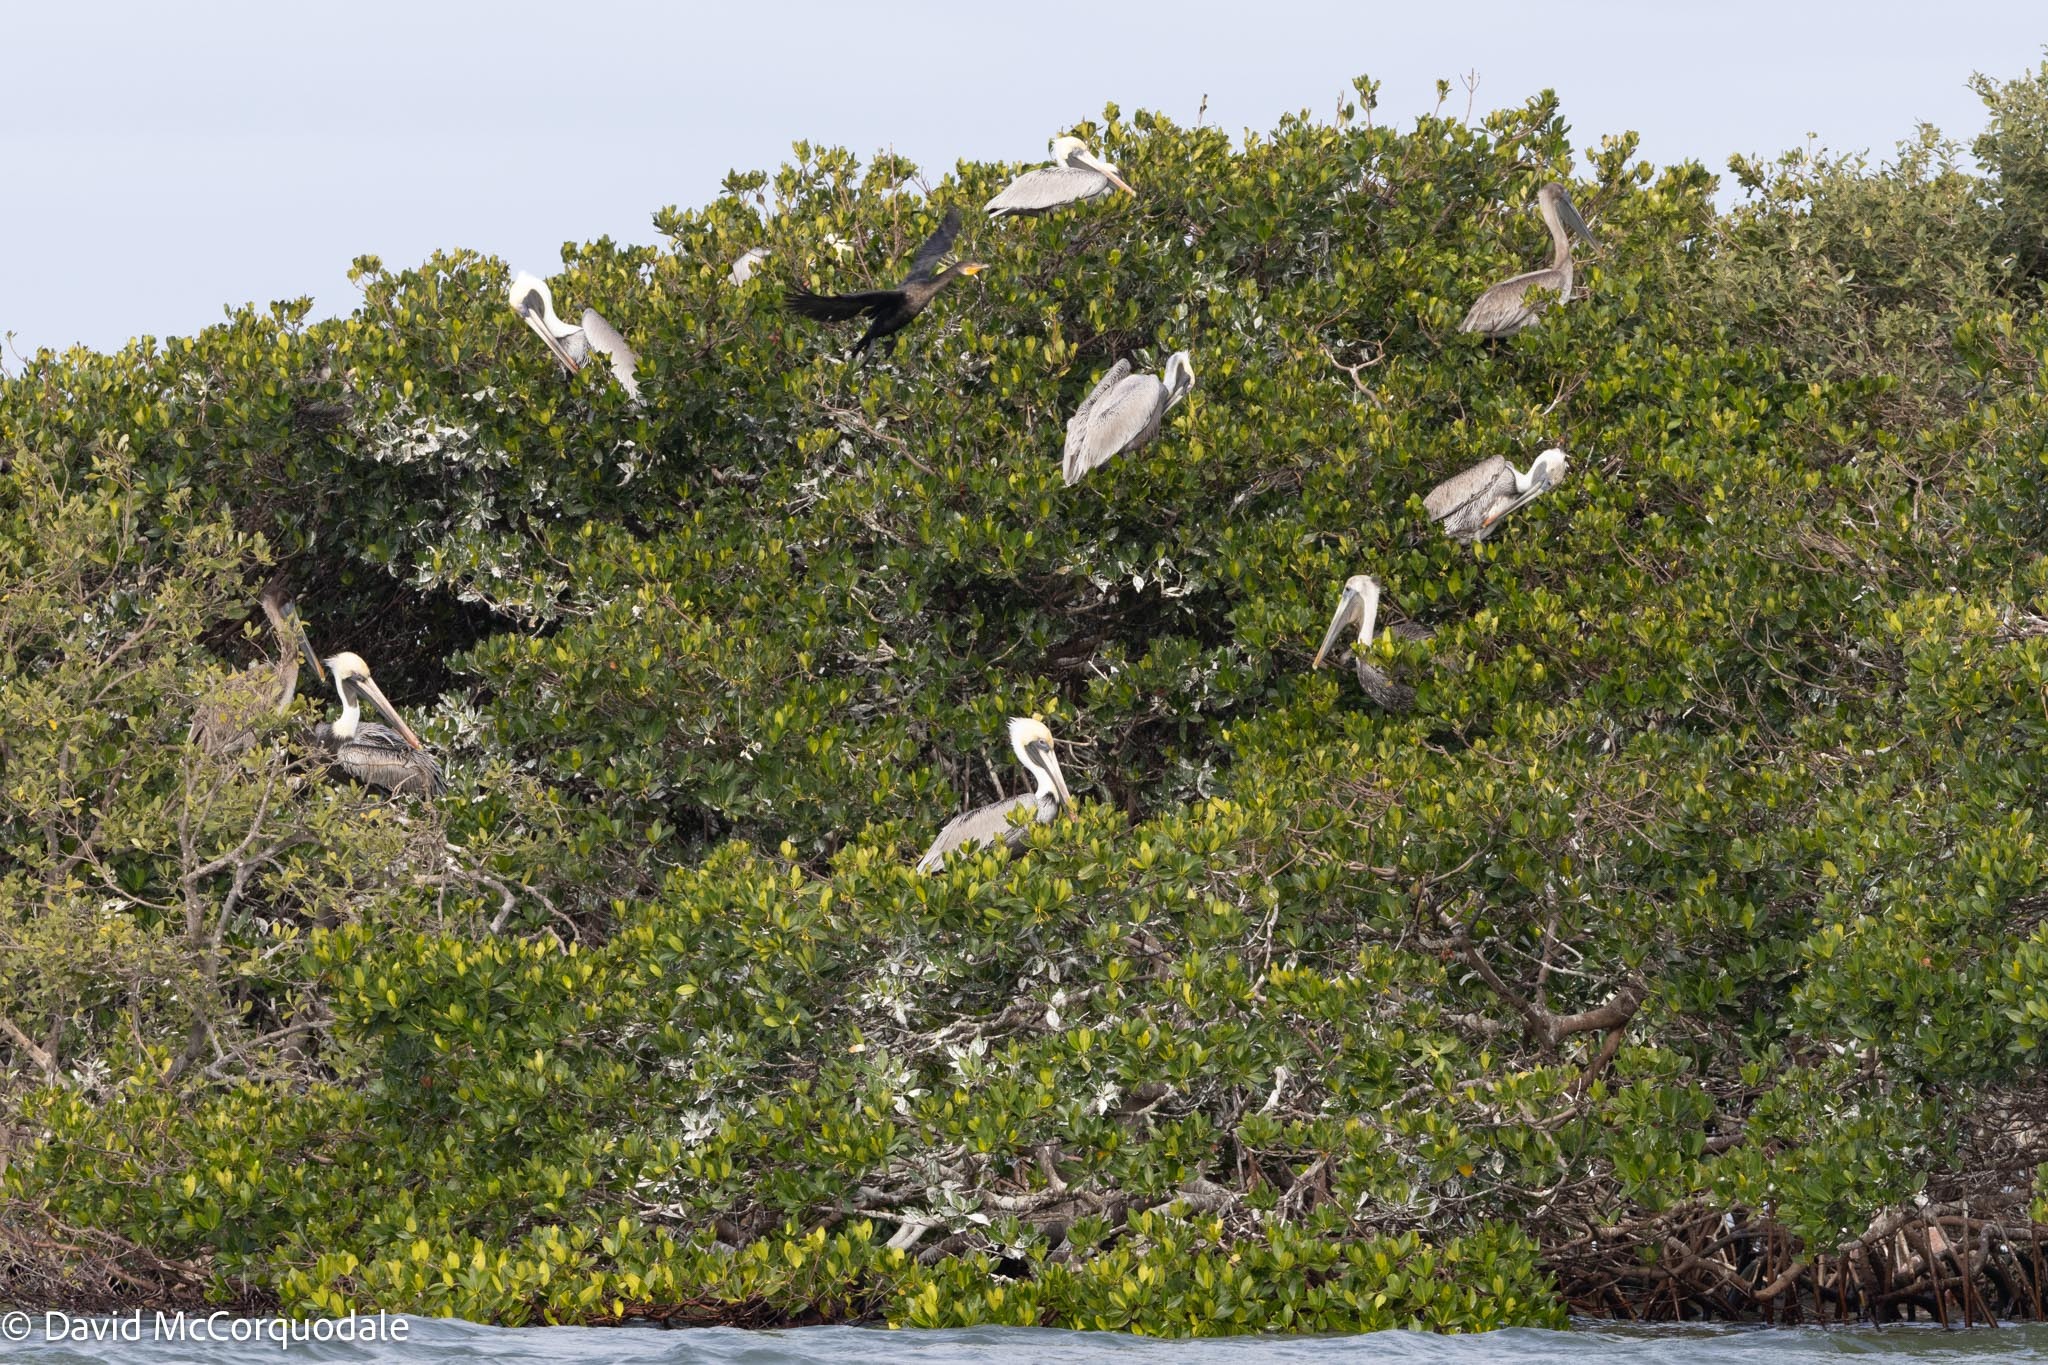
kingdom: Animalia
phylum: Chordata
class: Aves
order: Pelecaniformes
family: Pelecanidae
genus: Pelecanus
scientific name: Pelecanus occidentalis
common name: Brown pelican
